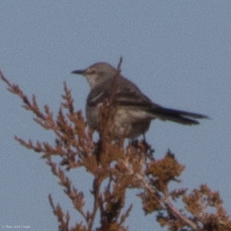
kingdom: Animalia
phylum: Chordata
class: Aves
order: Passeriformes
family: Mimidae
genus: Mimus
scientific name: Mimus polyglottos
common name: Northern mockingbird
